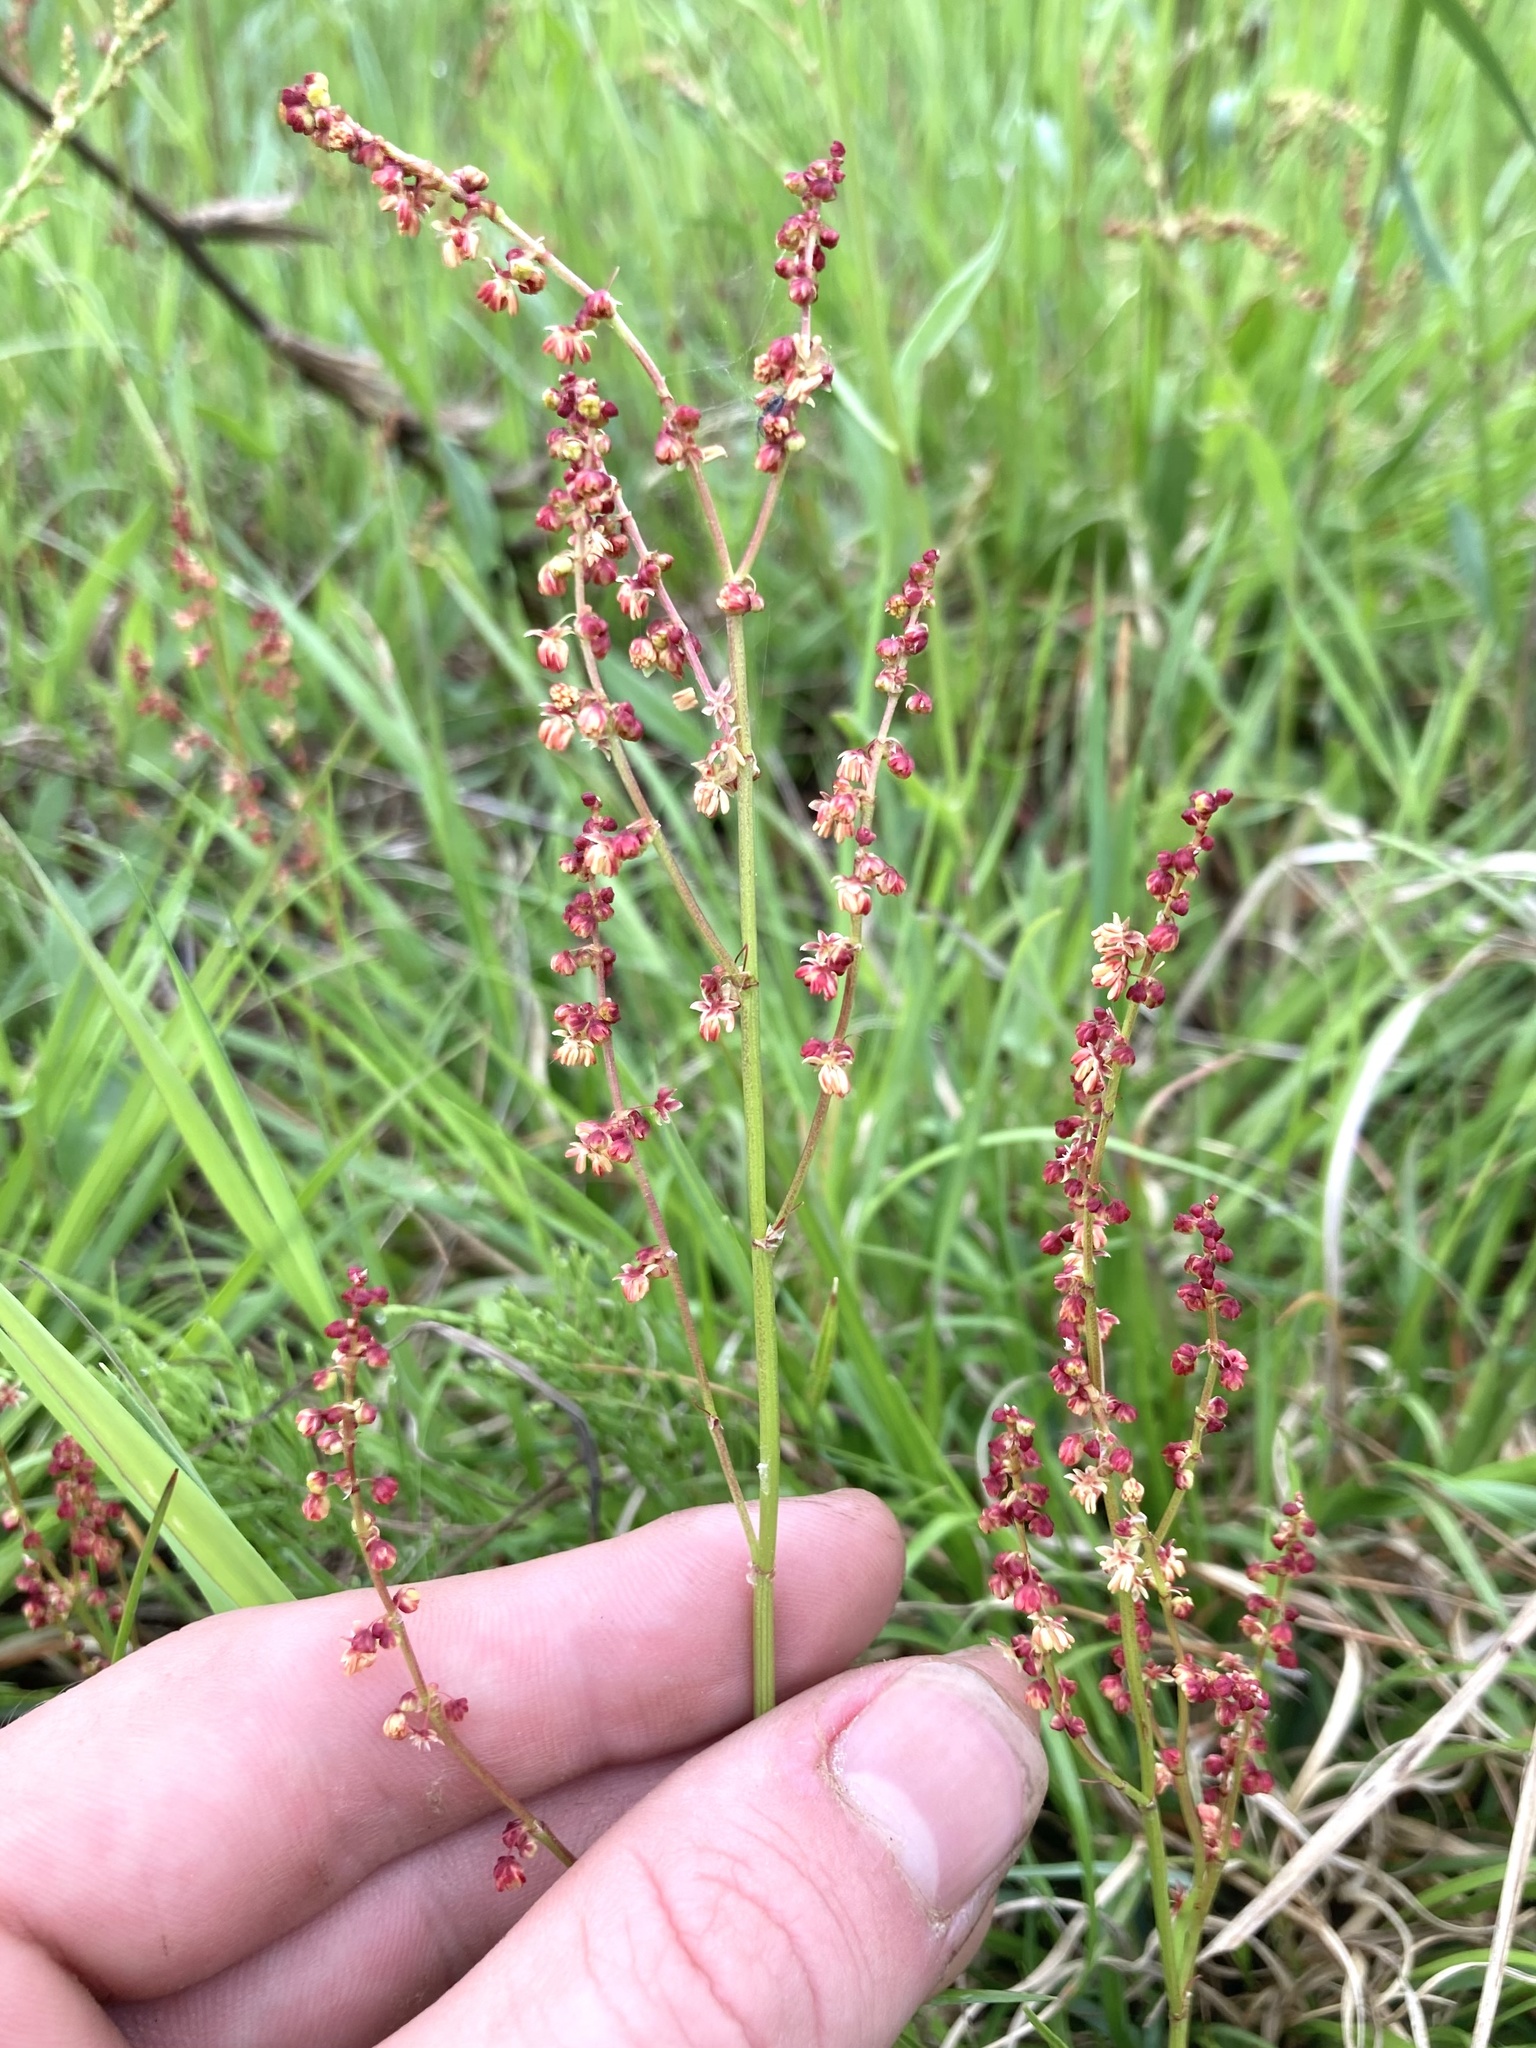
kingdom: Plantae
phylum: Tracheophyta
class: Magnoliopsida
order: Caryophyllales
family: Polygonaceae
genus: Rumex
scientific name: Rumex acetosella
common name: Common sheep sorrel
